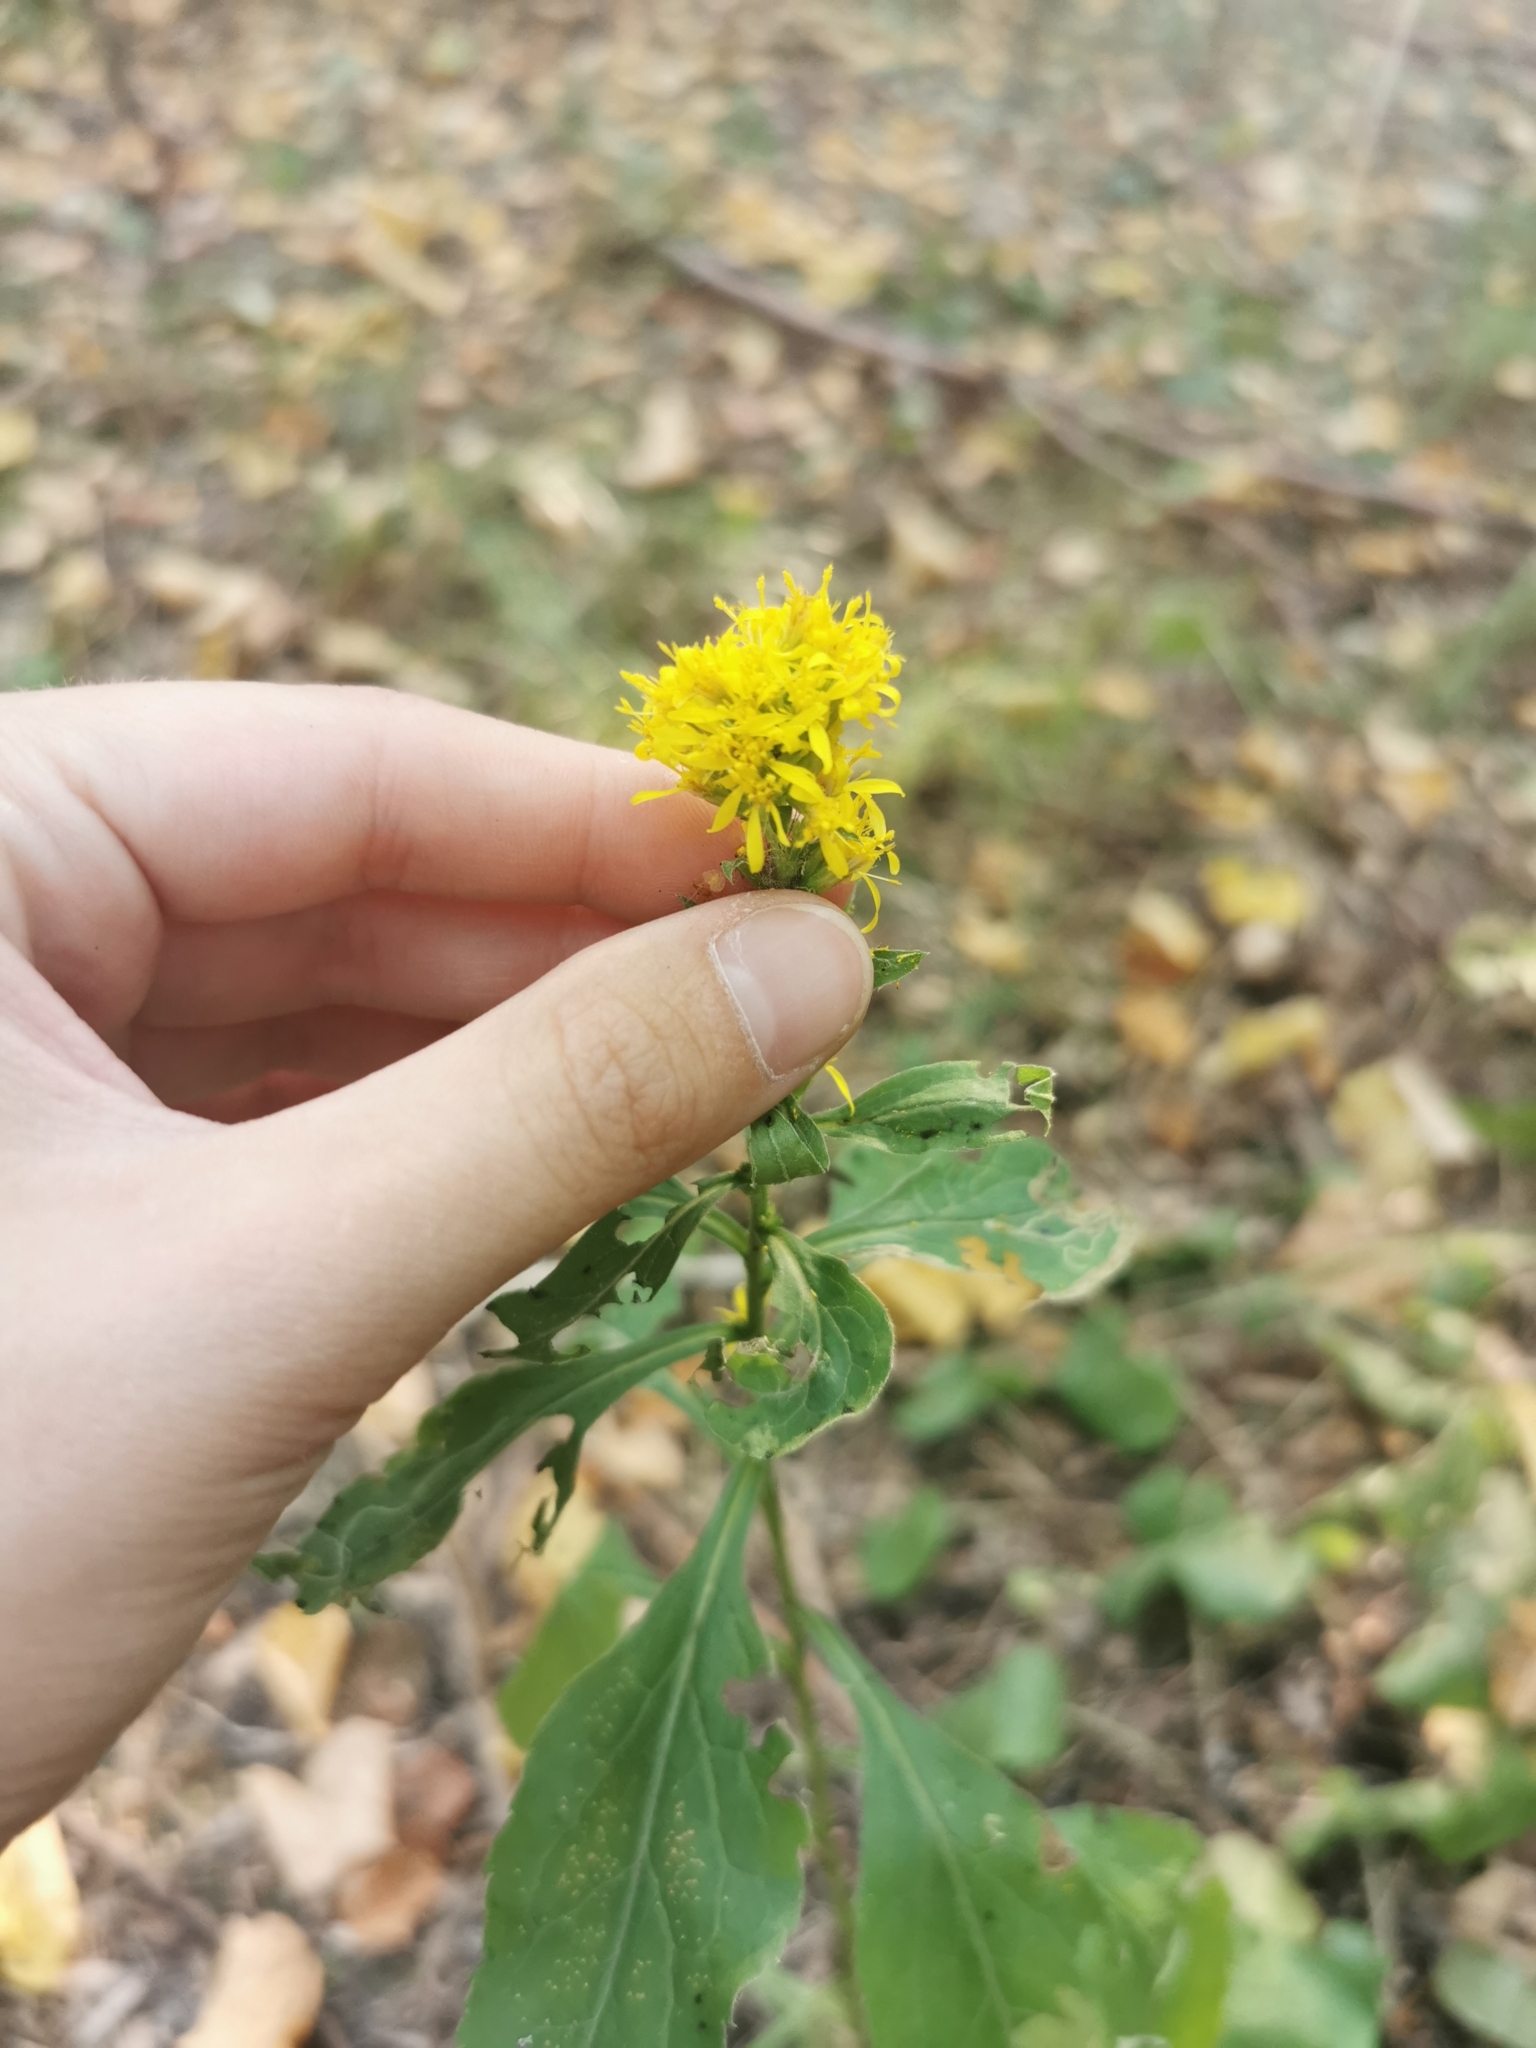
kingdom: Plantae
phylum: Tracheophyta
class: Magnoliopsida
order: Asterales
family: Asteraceae
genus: Solidago
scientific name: Solidago virgaurea
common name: Goldenrod
